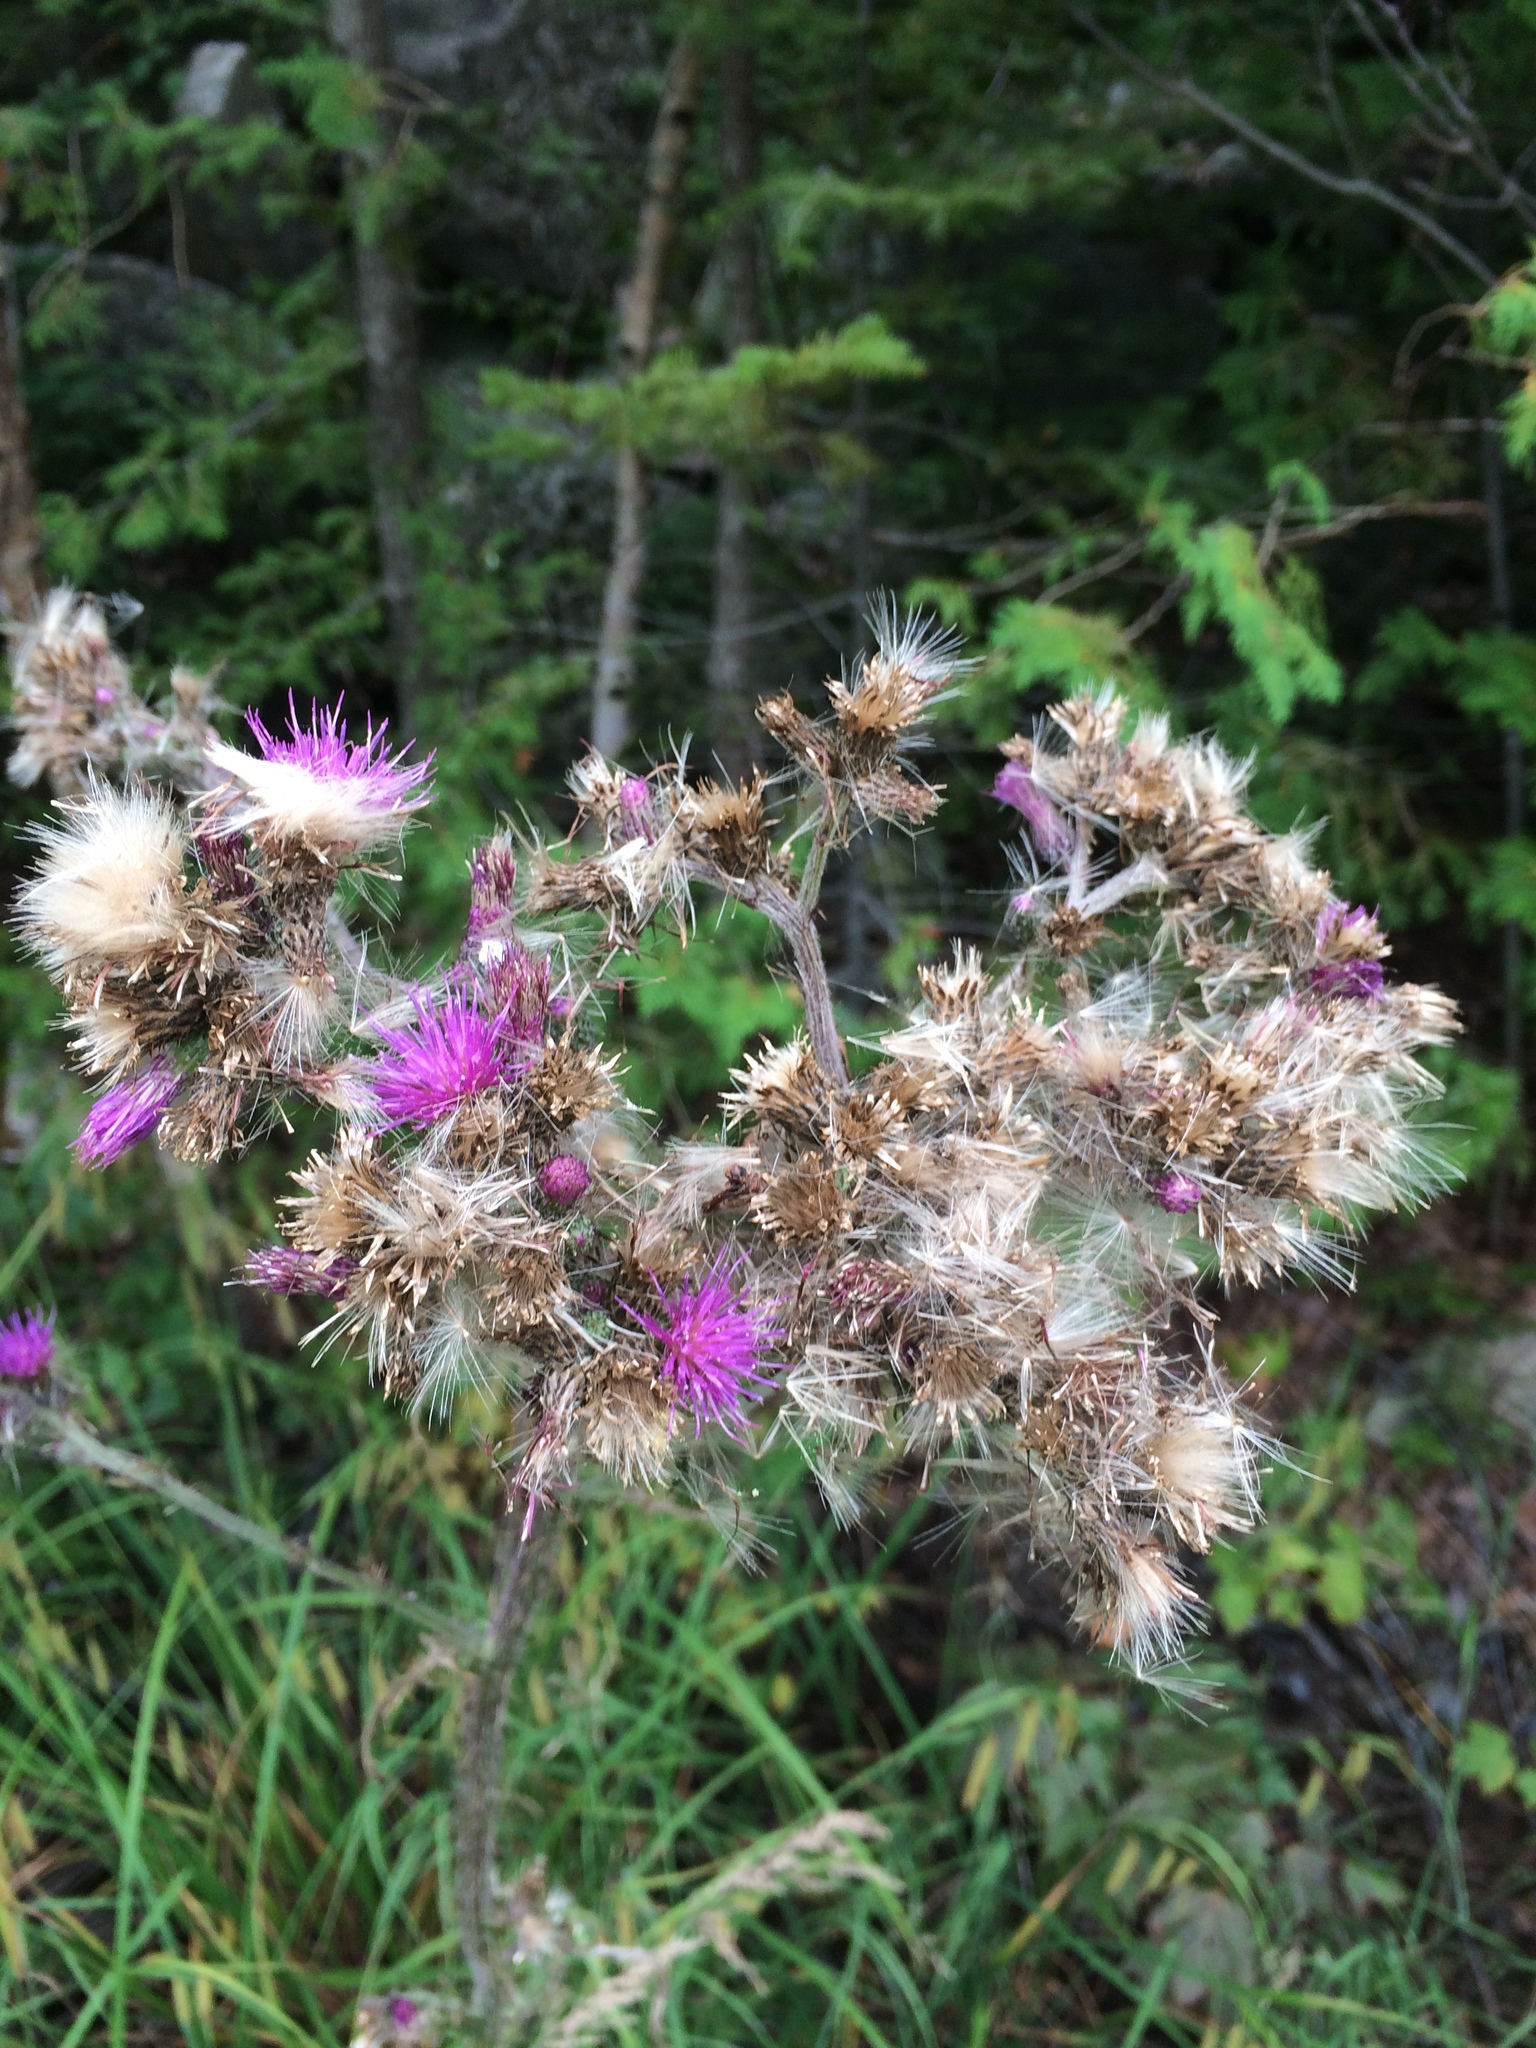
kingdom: Plantae
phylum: Tracheophyta
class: Magnoliopsida
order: Asterales
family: Asteraceae
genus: Cirsium
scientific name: Cirsium palustre
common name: Marsh thistle
